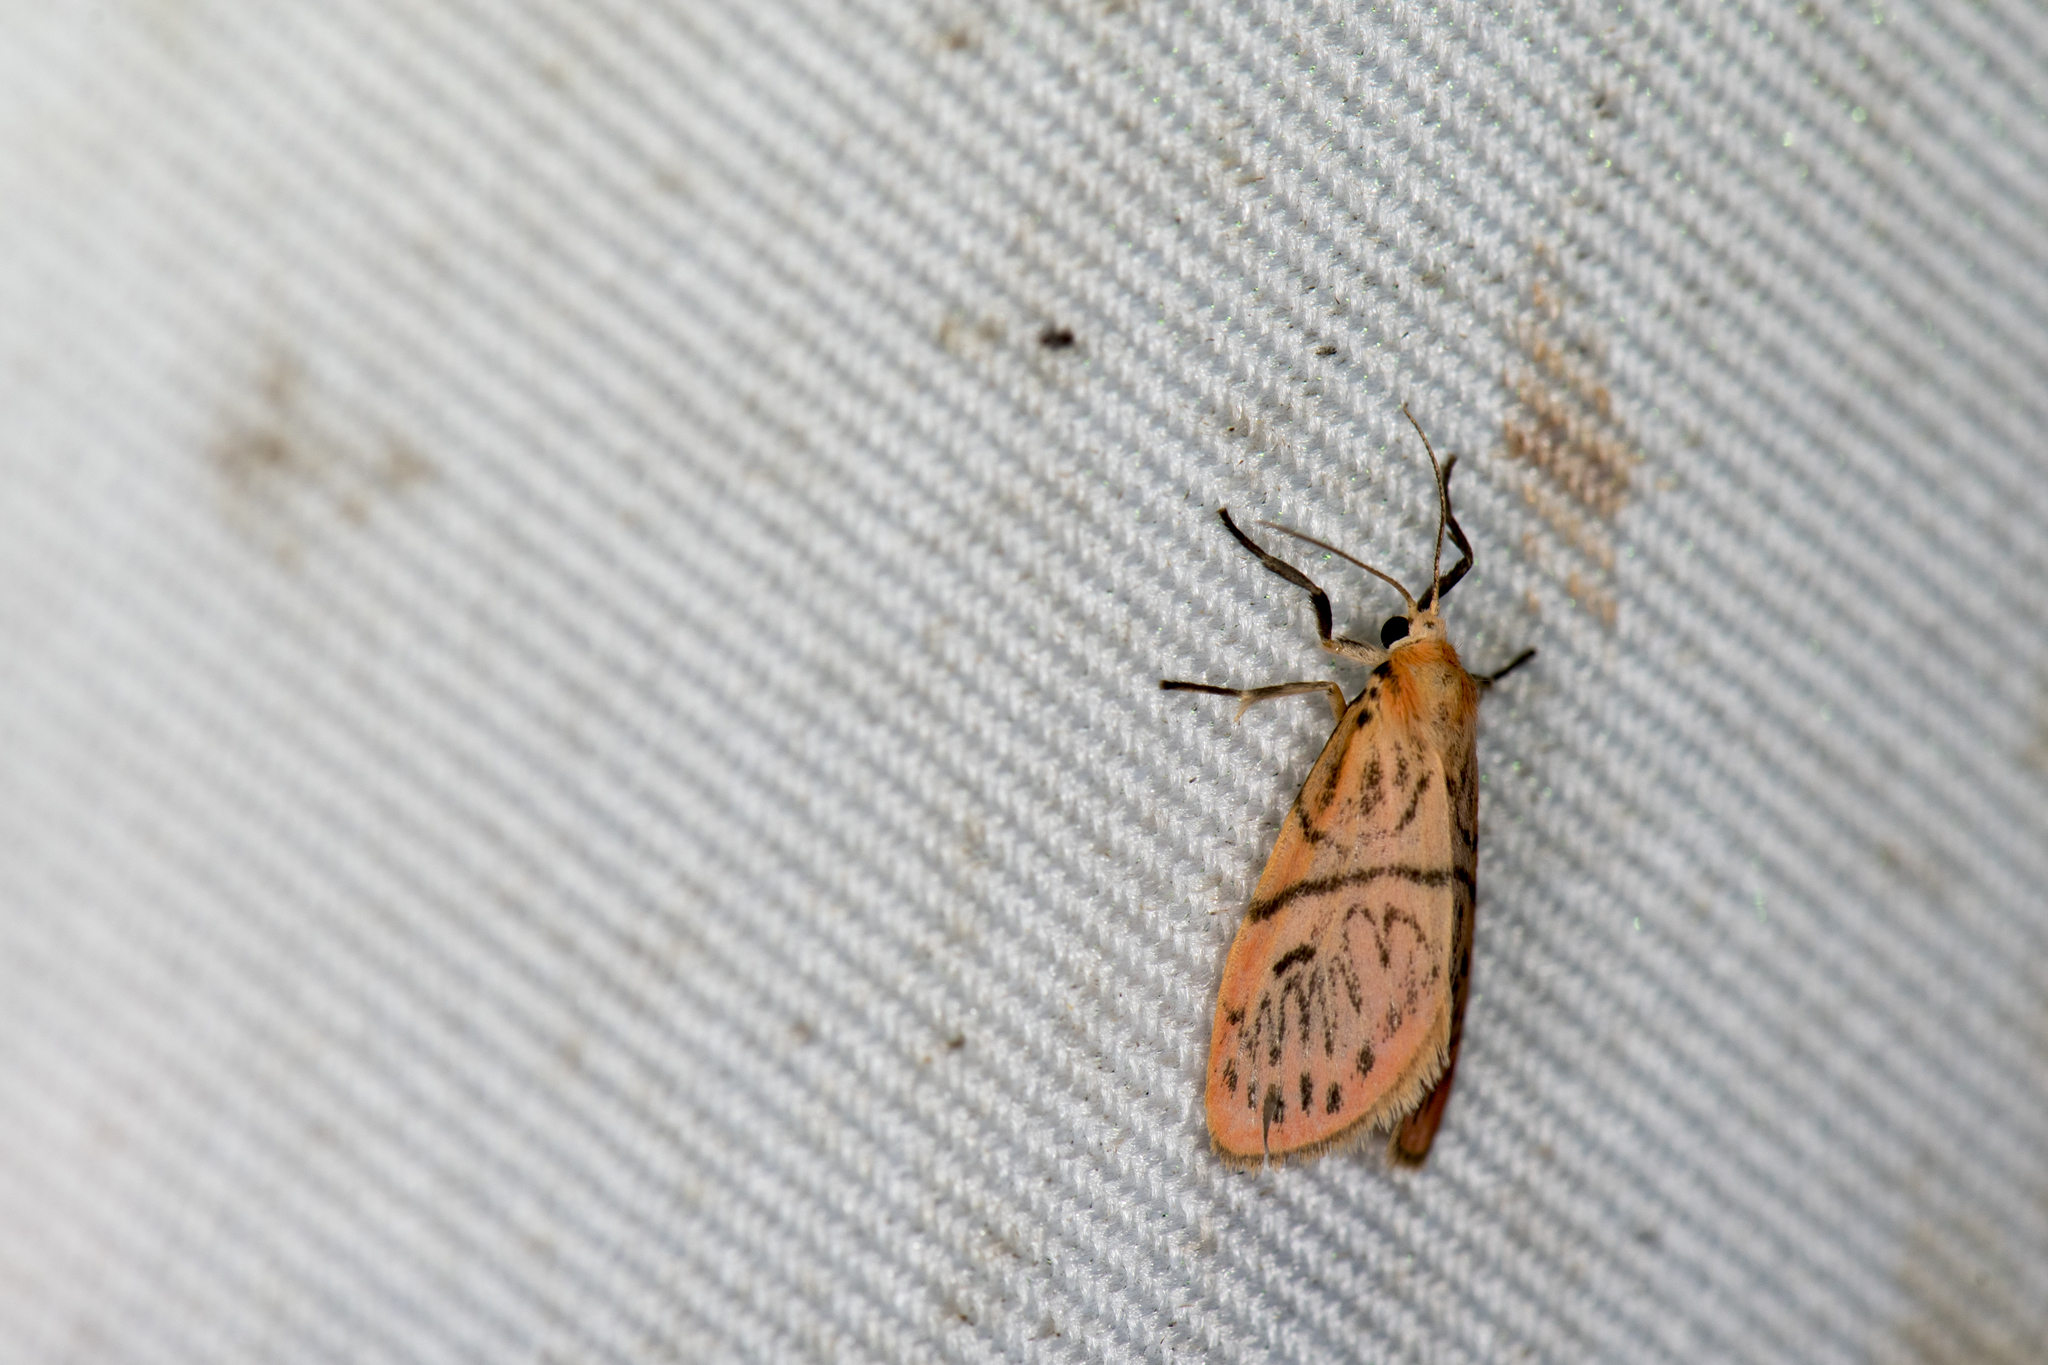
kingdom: Animalia
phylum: Arthropoda
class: Insecta
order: Lepidoptera
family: Erebidae
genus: Sesapa
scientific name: Sesapa koshunica
